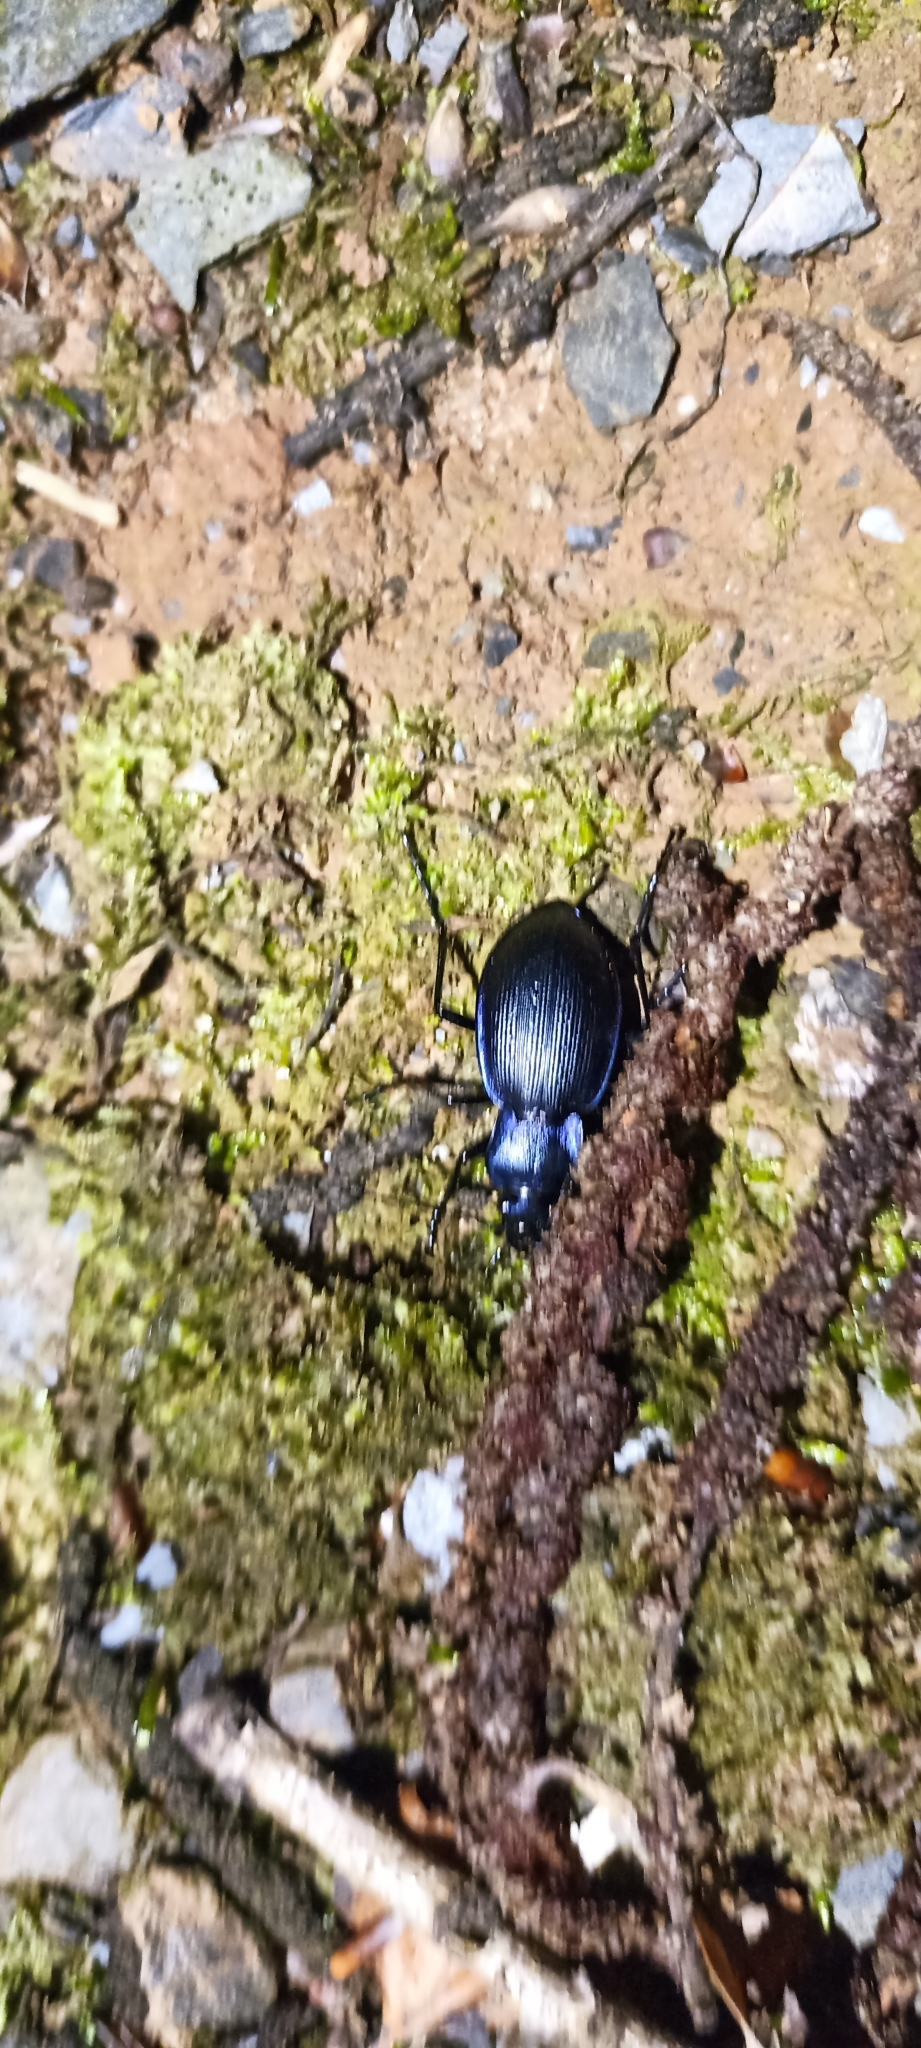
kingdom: Animalia
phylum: Arthropoda
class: Insecta
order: Coleoptera
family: Carabidae
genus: Carabus
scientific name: Carabus problematicus
